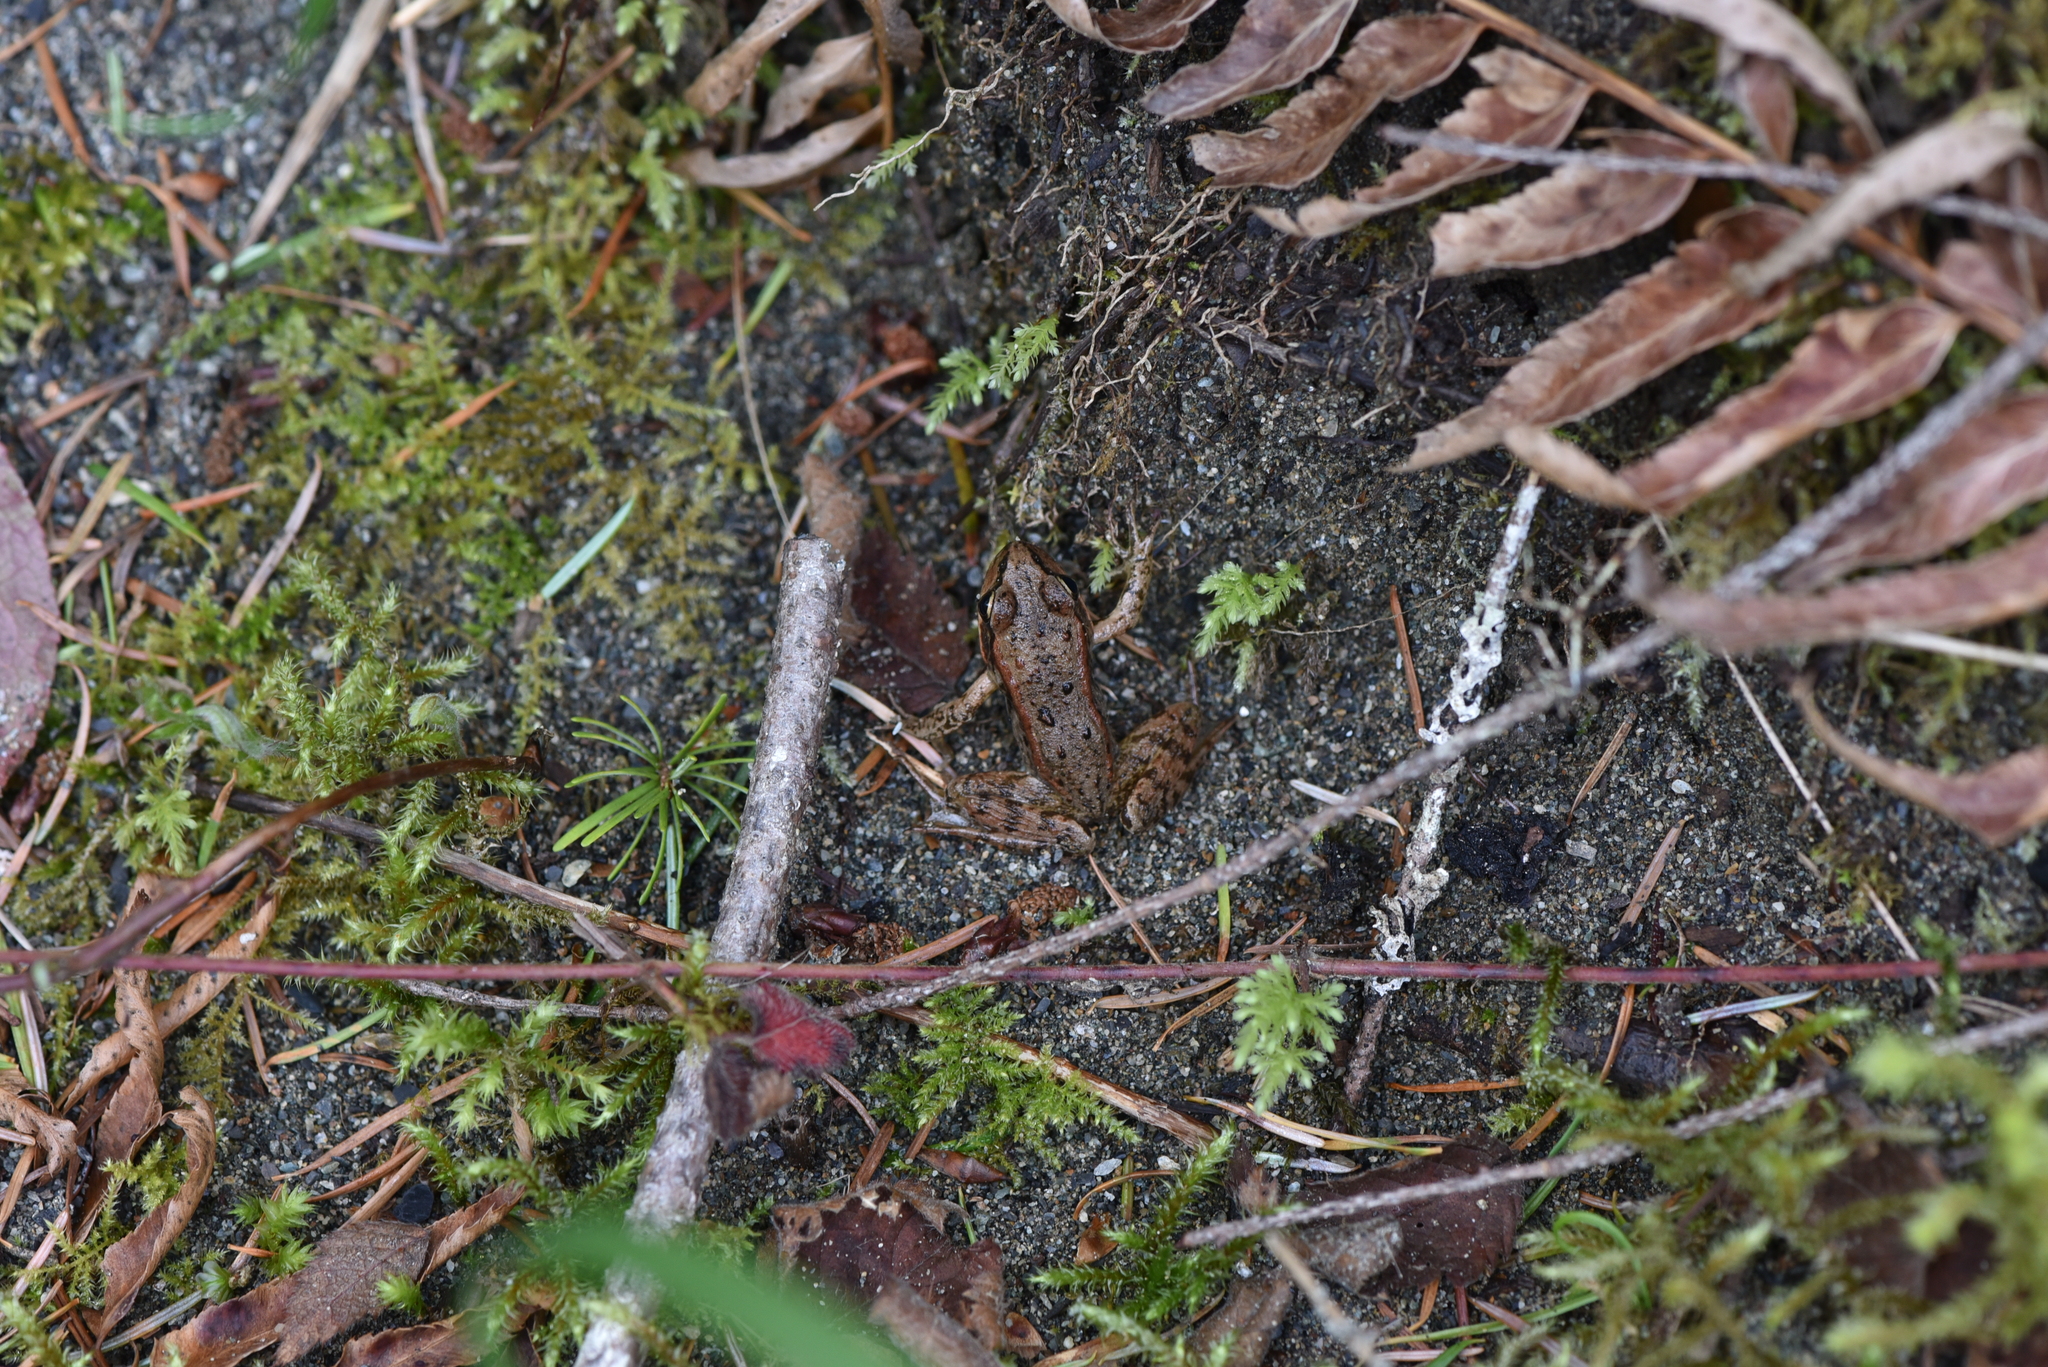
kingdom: Animalia
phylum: Chordata
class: Amphibia
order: Anura
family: Ranidae
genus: Rana
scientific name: Rana aurora
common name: Red-legged frog
